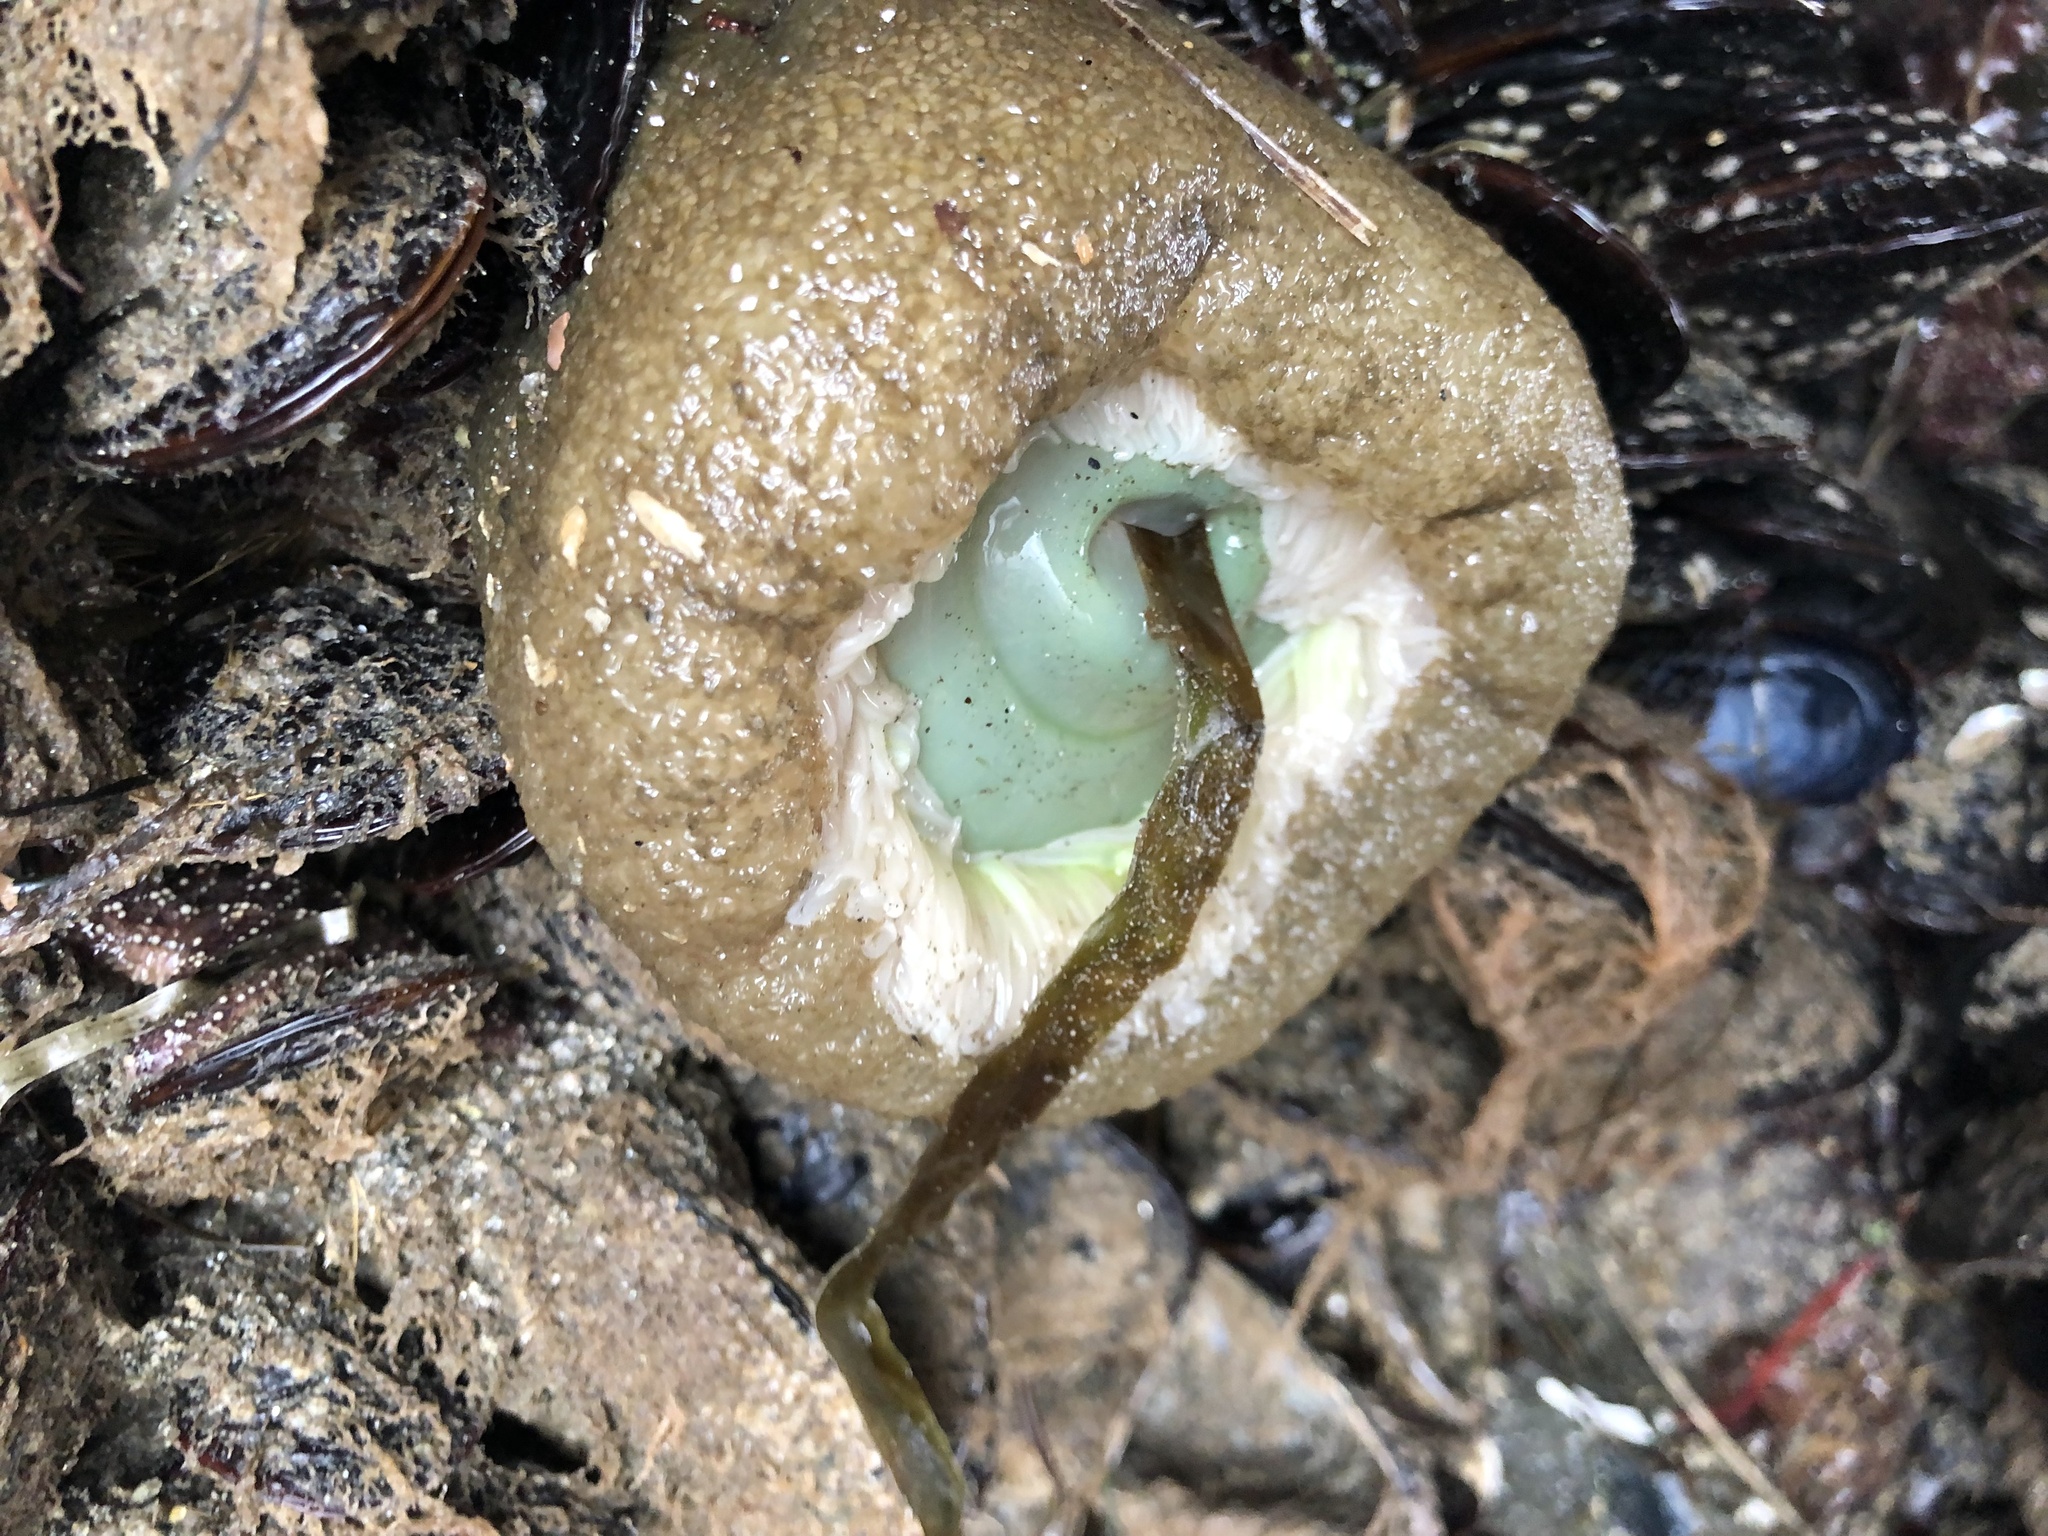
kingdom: Animalia
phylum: Cnidaria
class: Anthozoa
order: Actiniaria
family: Actiniidae
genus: Anthopleura
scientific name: Anthopleura xanthogrammica
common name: Giant green anemone
